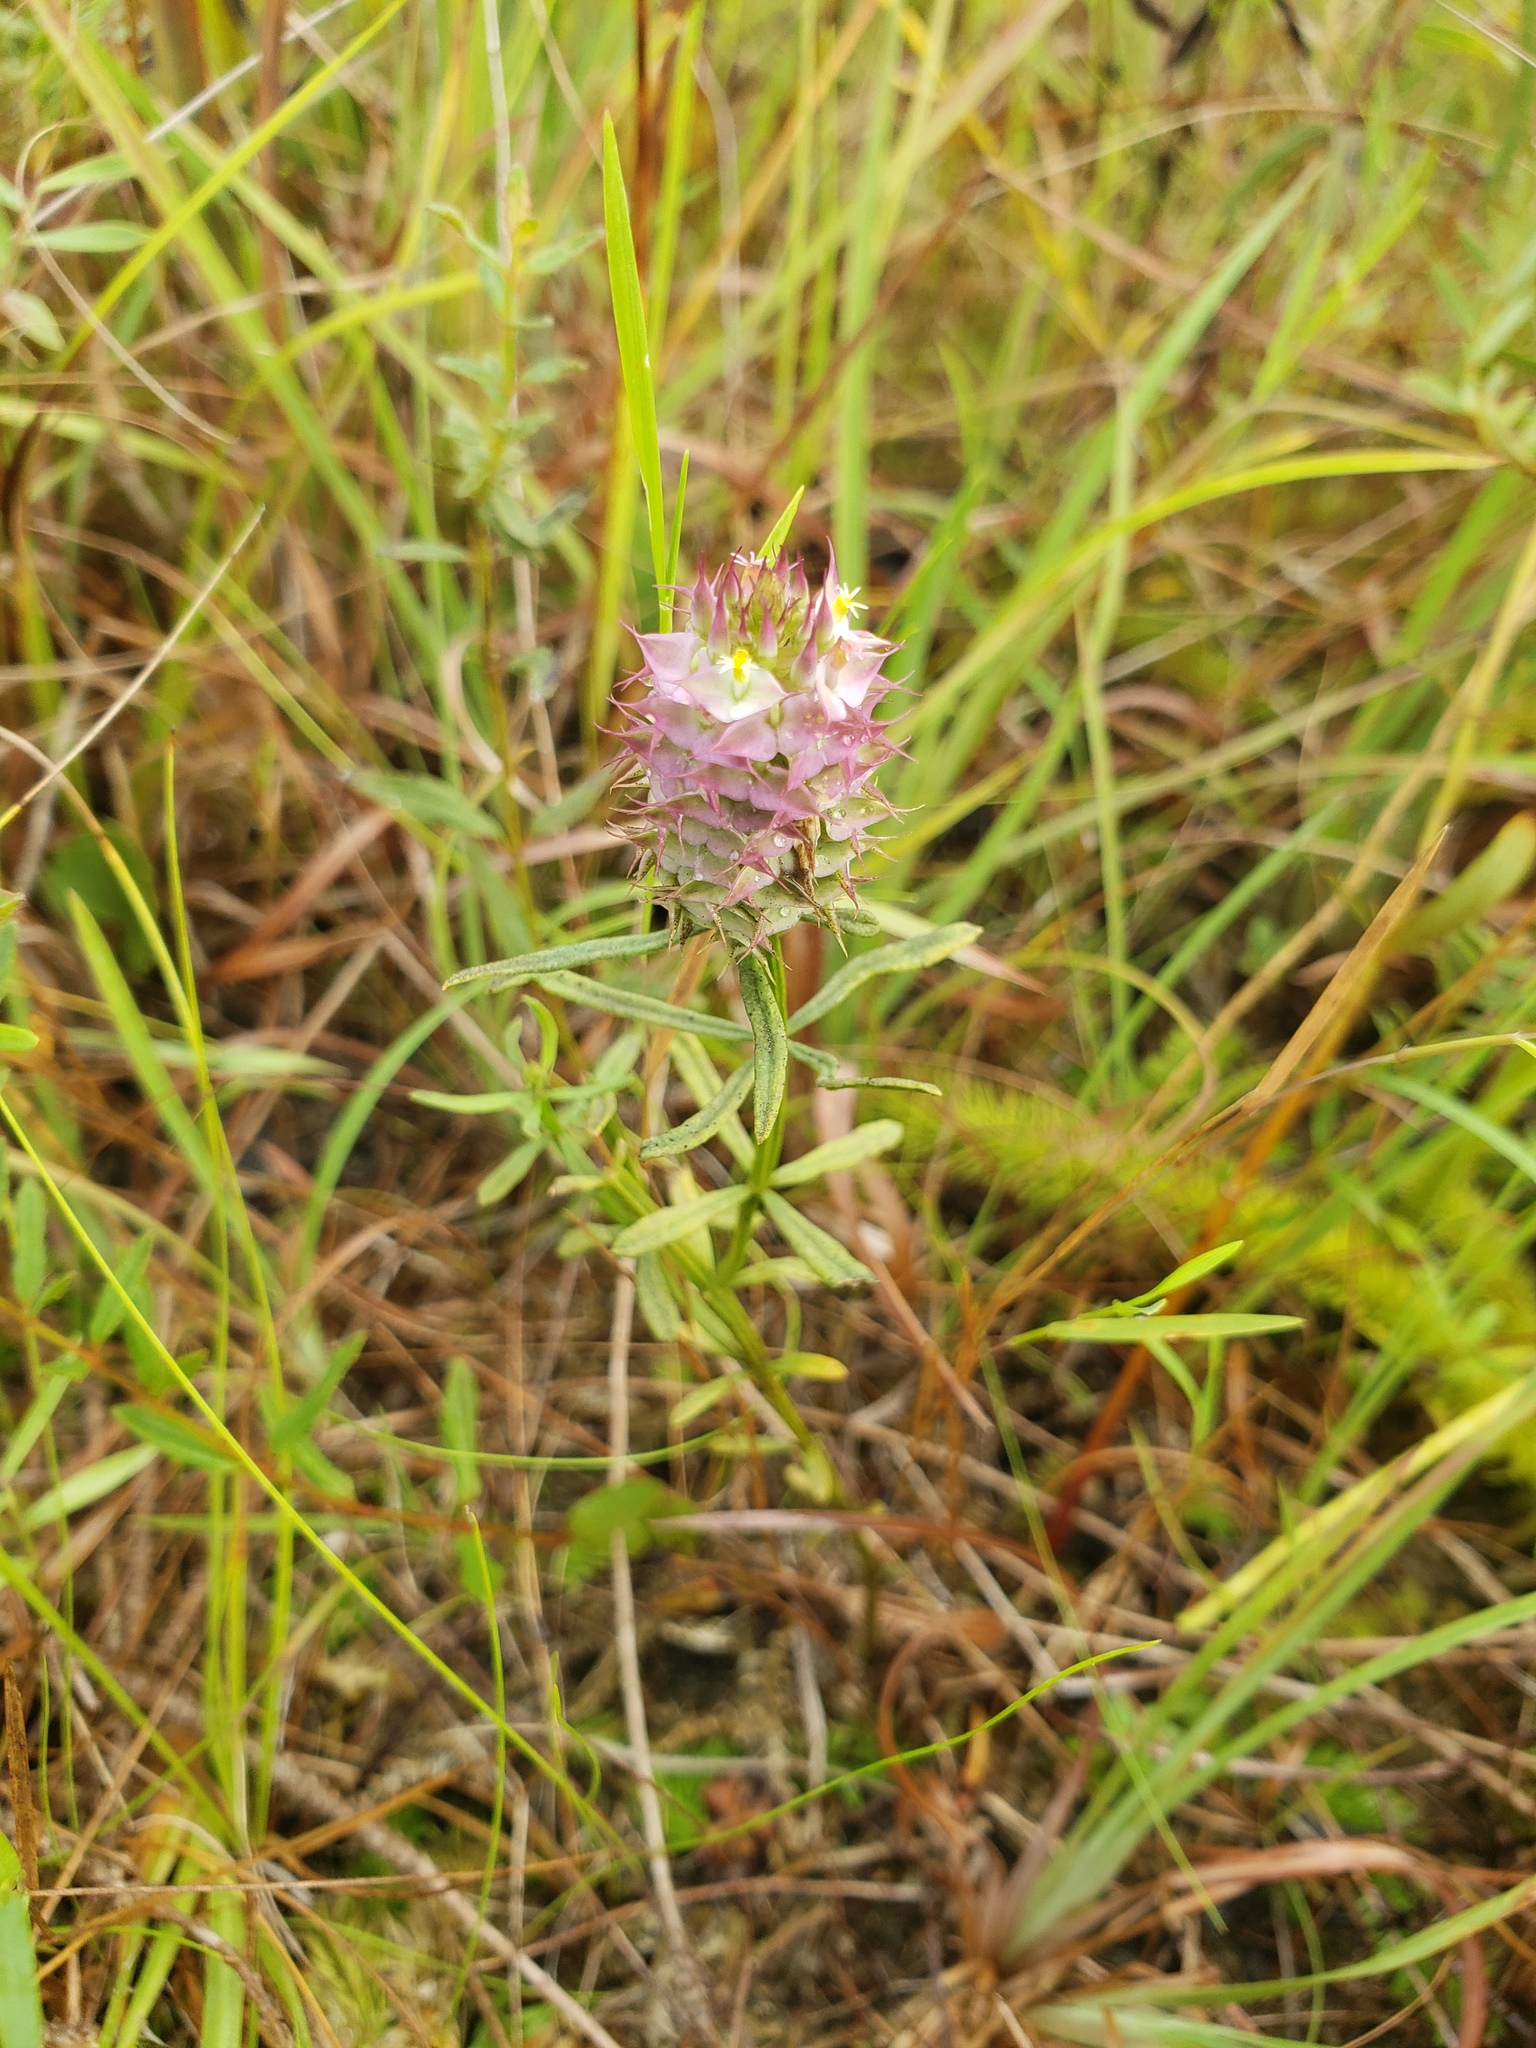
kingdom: Plantae
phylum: Tracheophyta
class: Magnoliopsida
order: Fabales
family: Polygalaceae
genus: Polygala
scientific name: Polygala cruciata
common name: Drumheads
